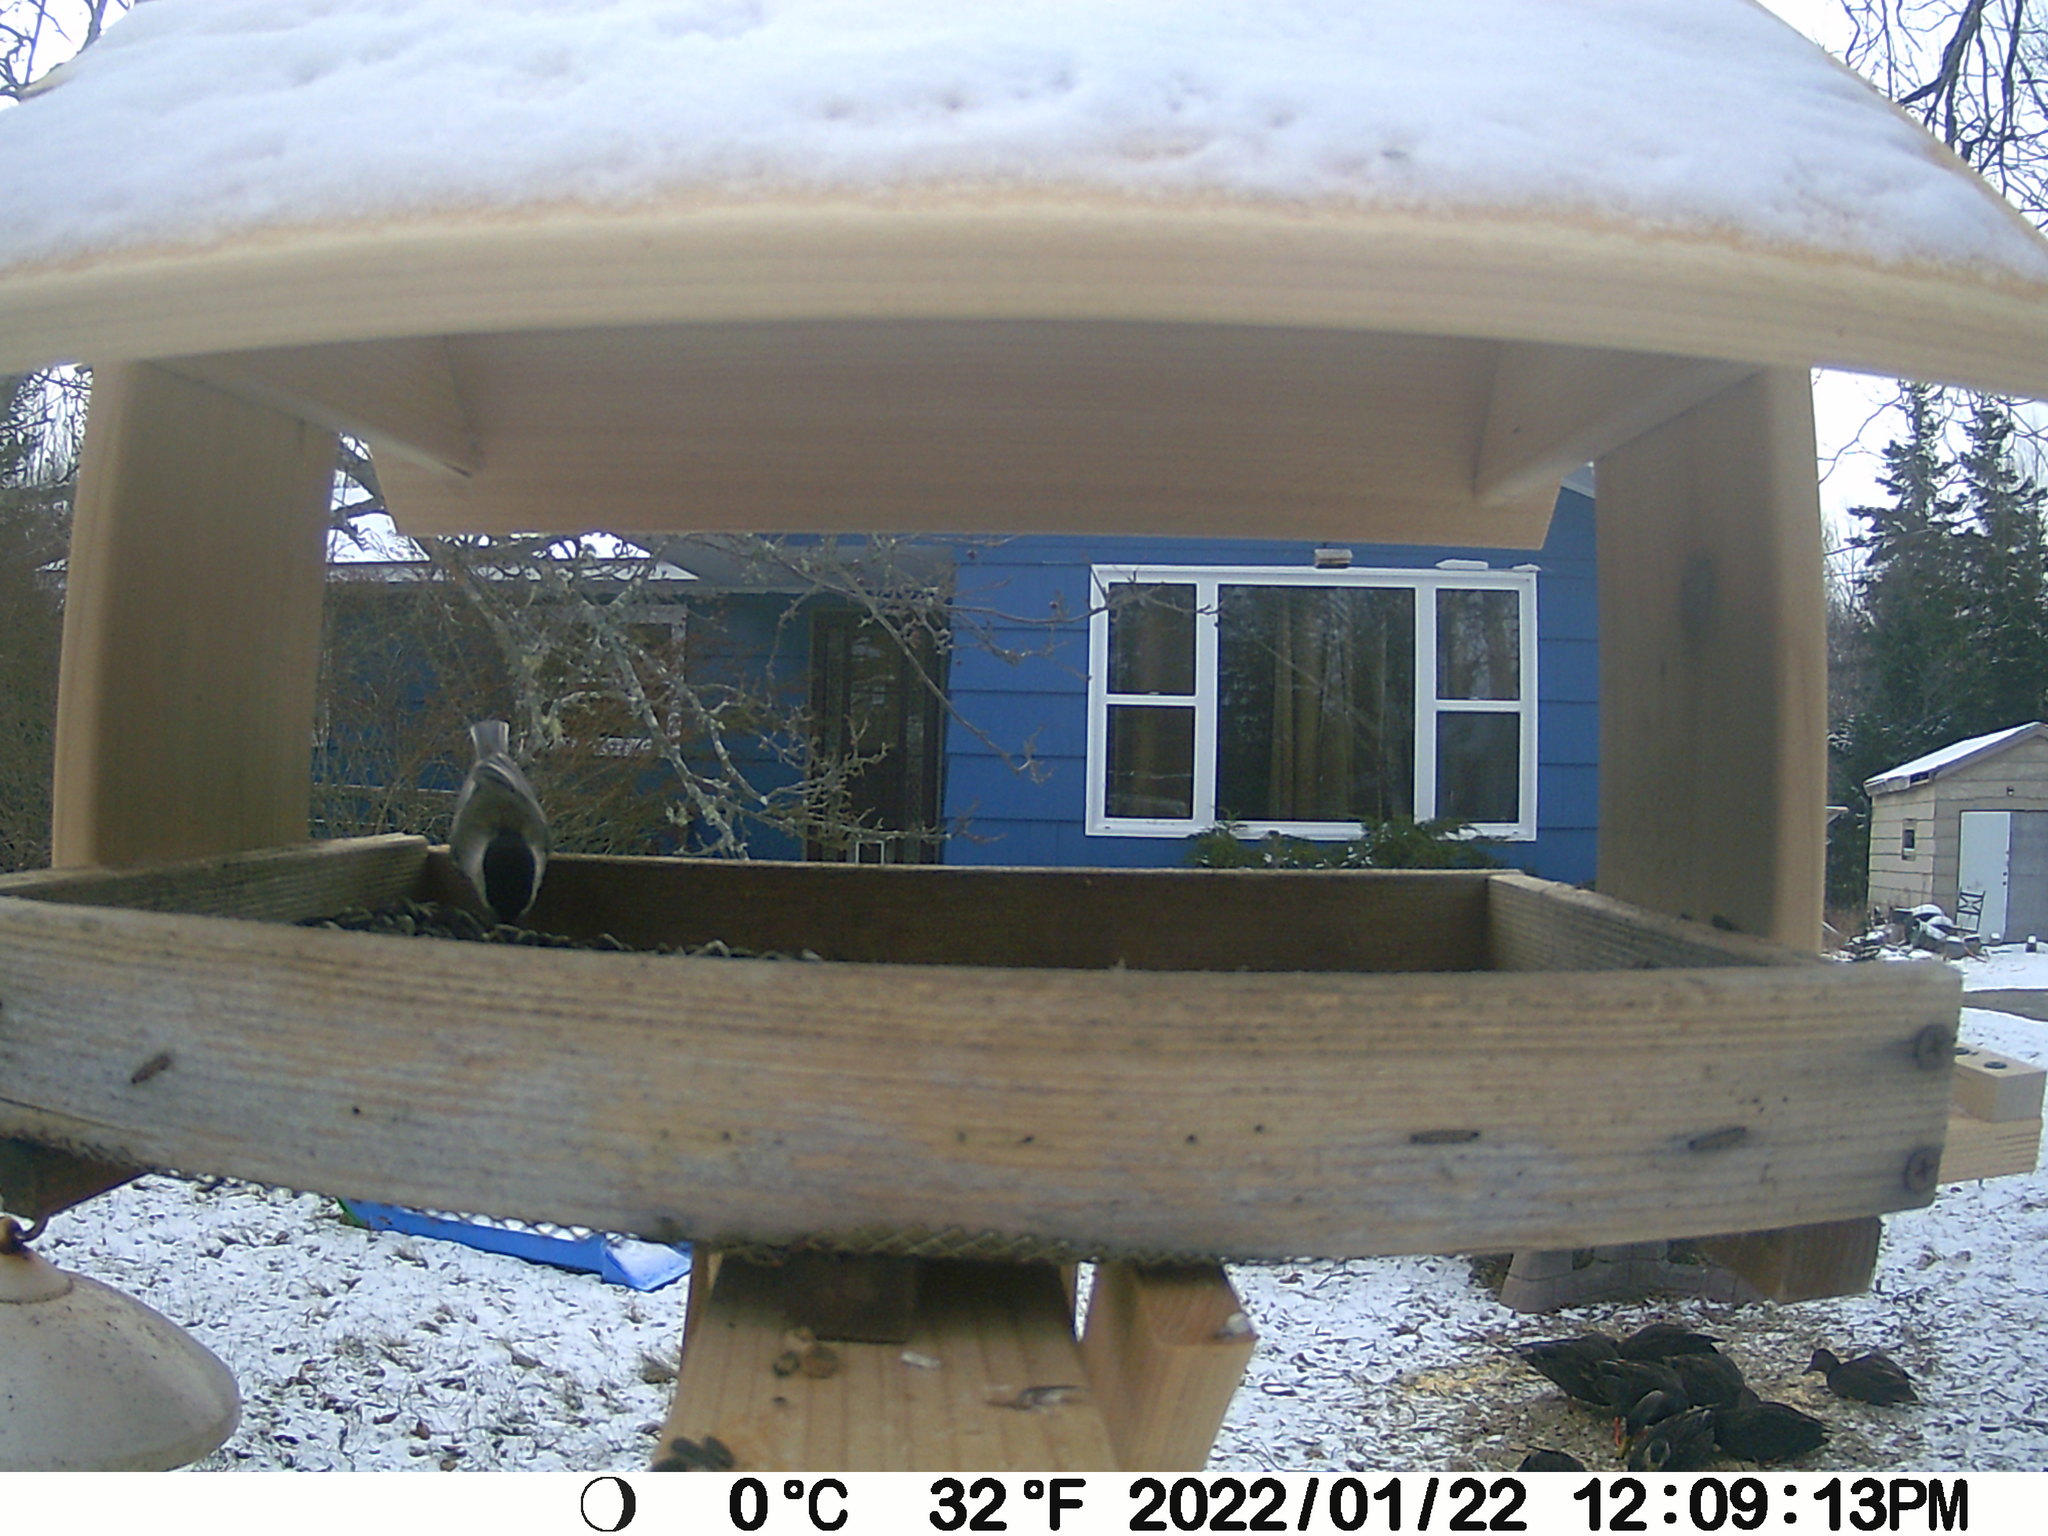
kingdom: Animalia
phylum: Chordata
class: Aves
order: Anseriformes
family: Anatidae
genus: Anas
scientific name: Anas rubripes
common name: American black duck
